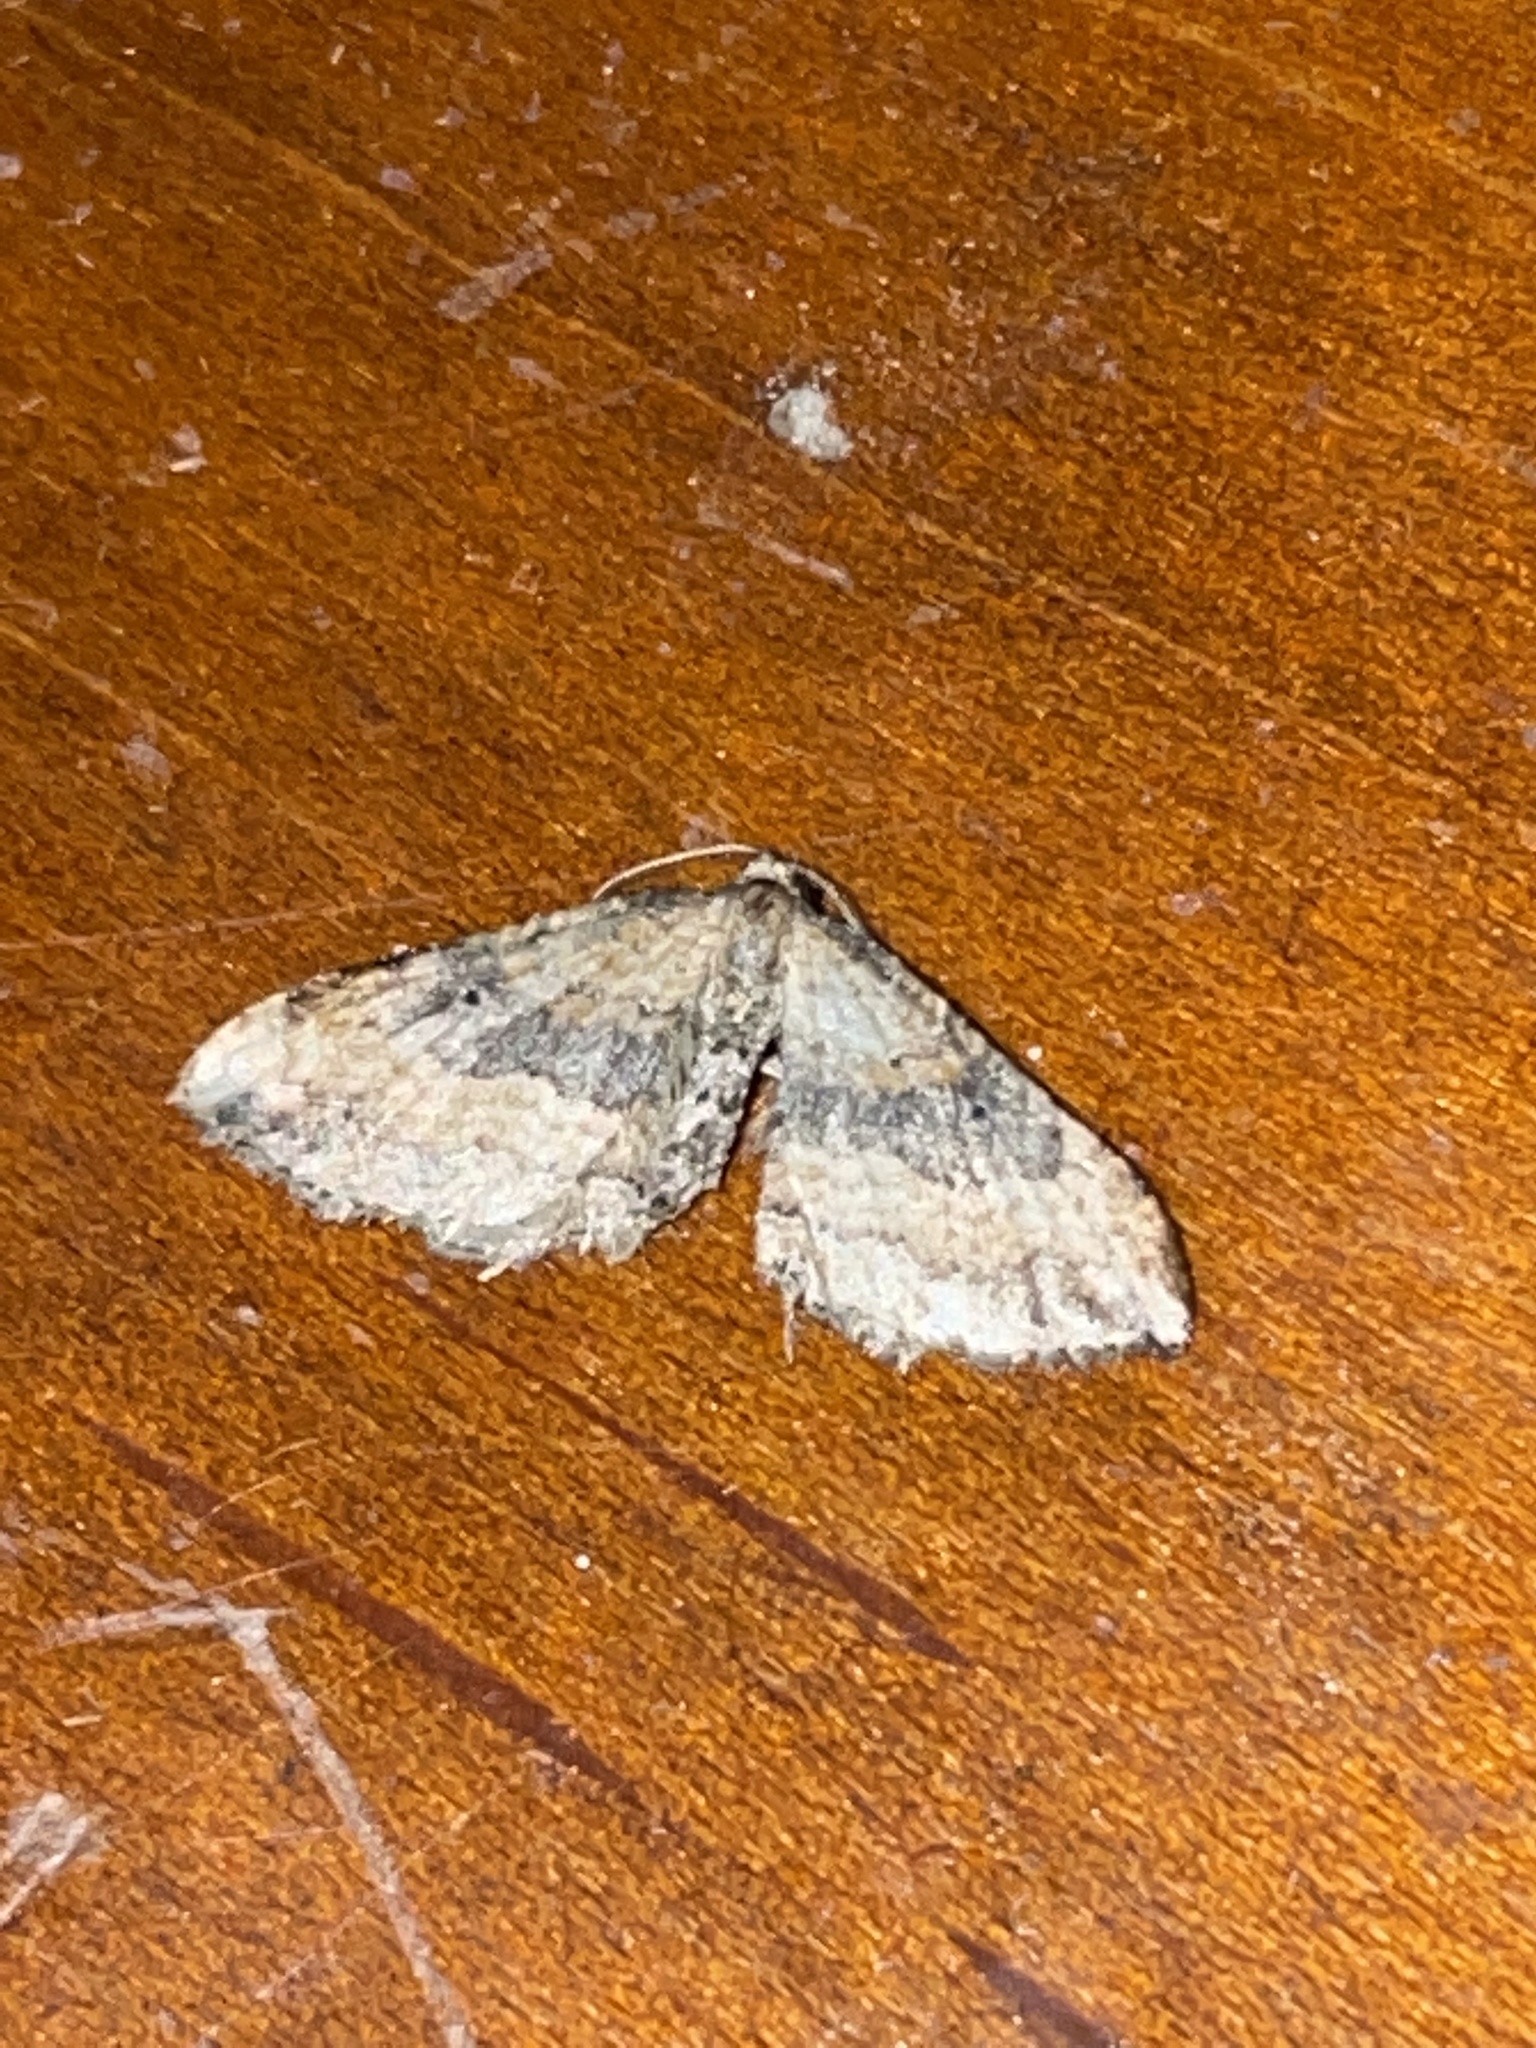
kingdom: Animalia
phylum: Arthropoda
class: Insecta
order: Lepidoptera
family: Geometridae
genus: Orthonama
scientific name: Orthonama obstipata
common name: The gem
